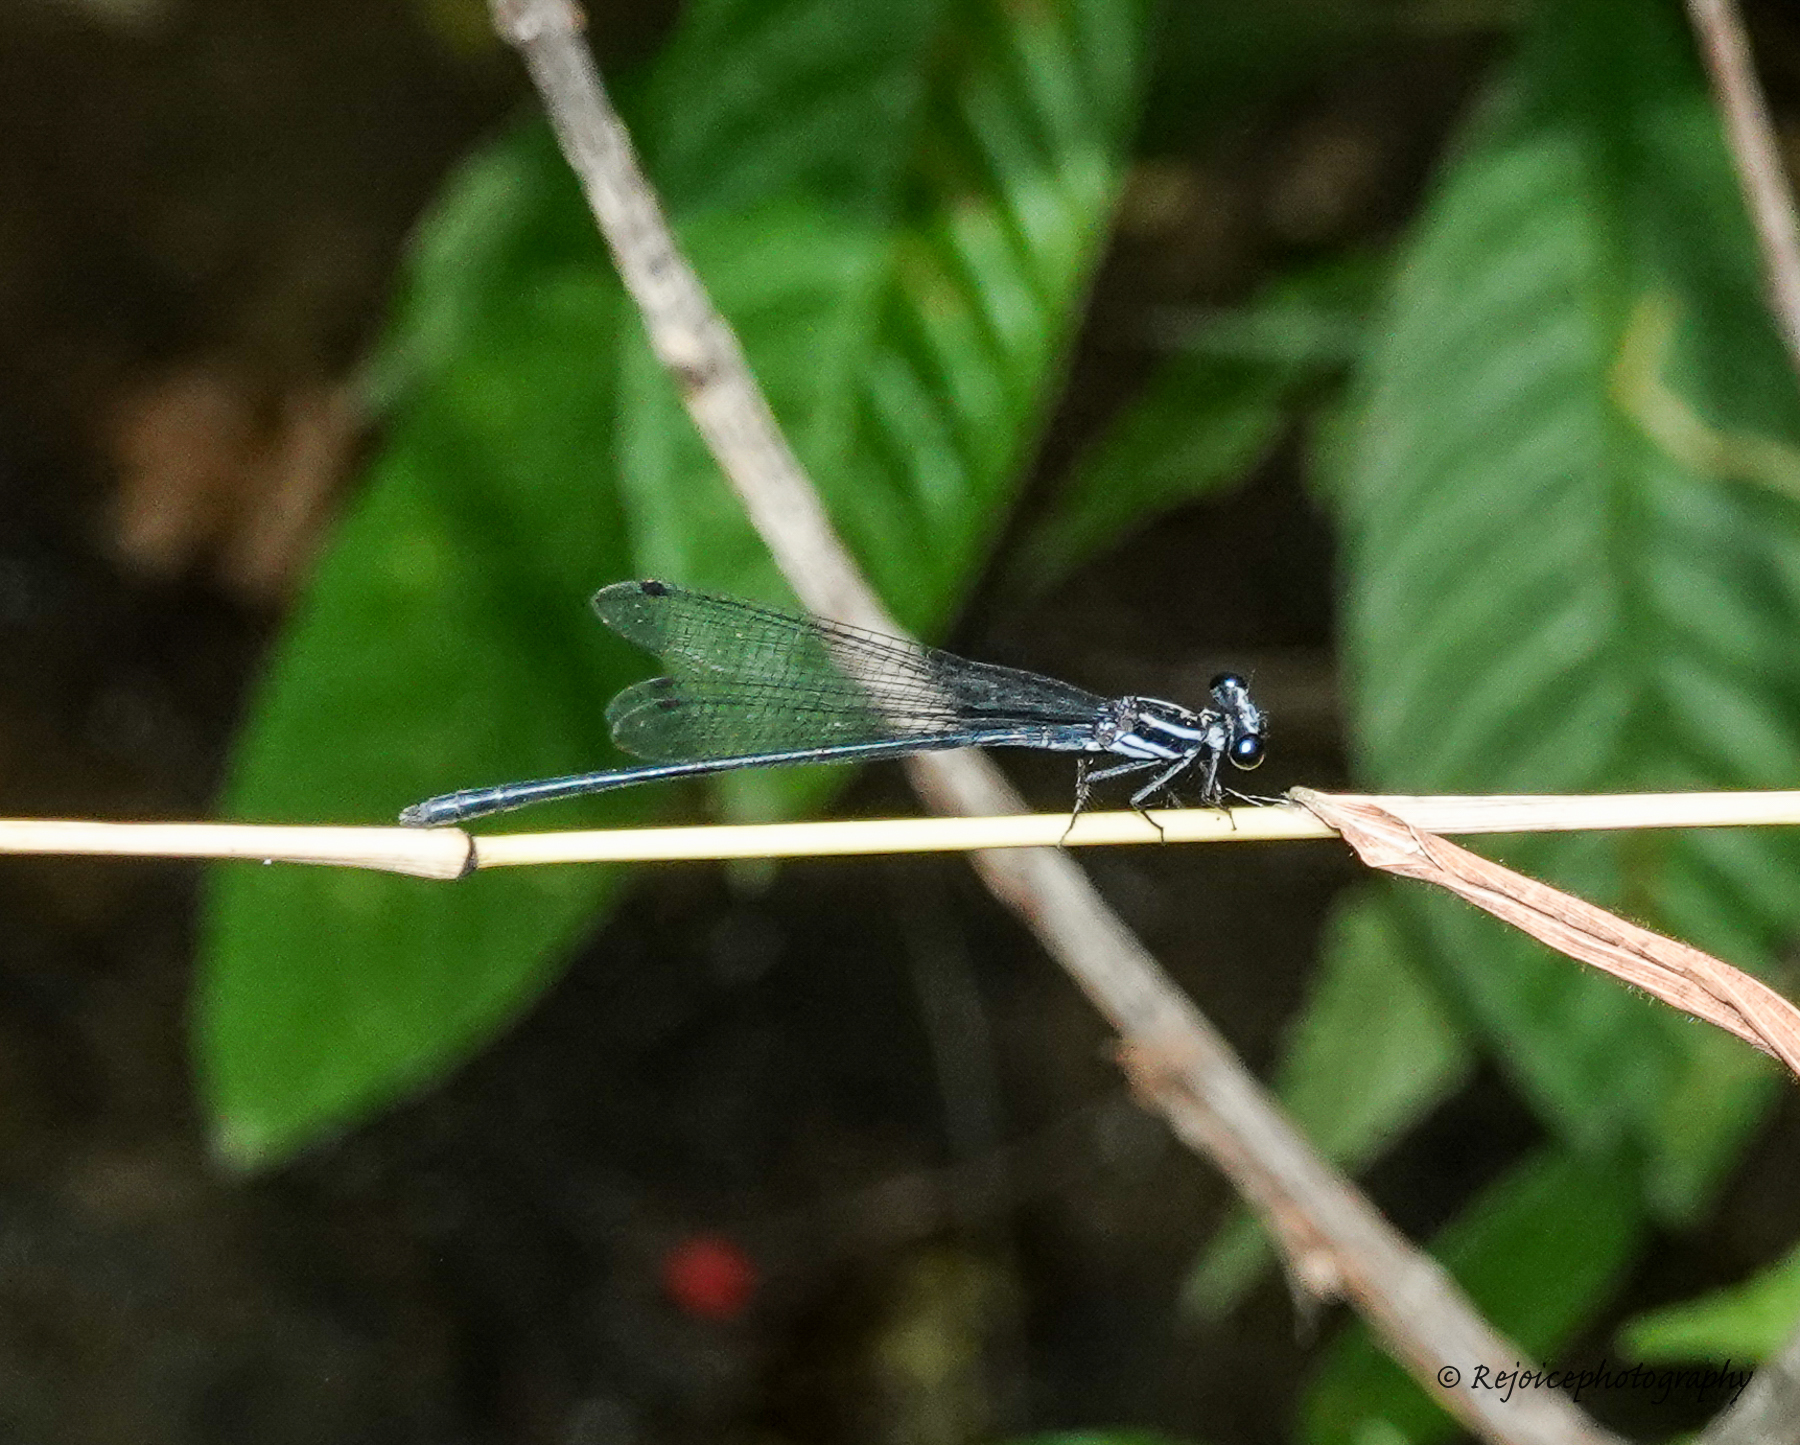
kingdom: Animalia
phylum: Arthropoda
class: Insecta
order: Odonata
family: Platycnemididae
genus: Calicnemia
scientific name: Calicnemia imitans
